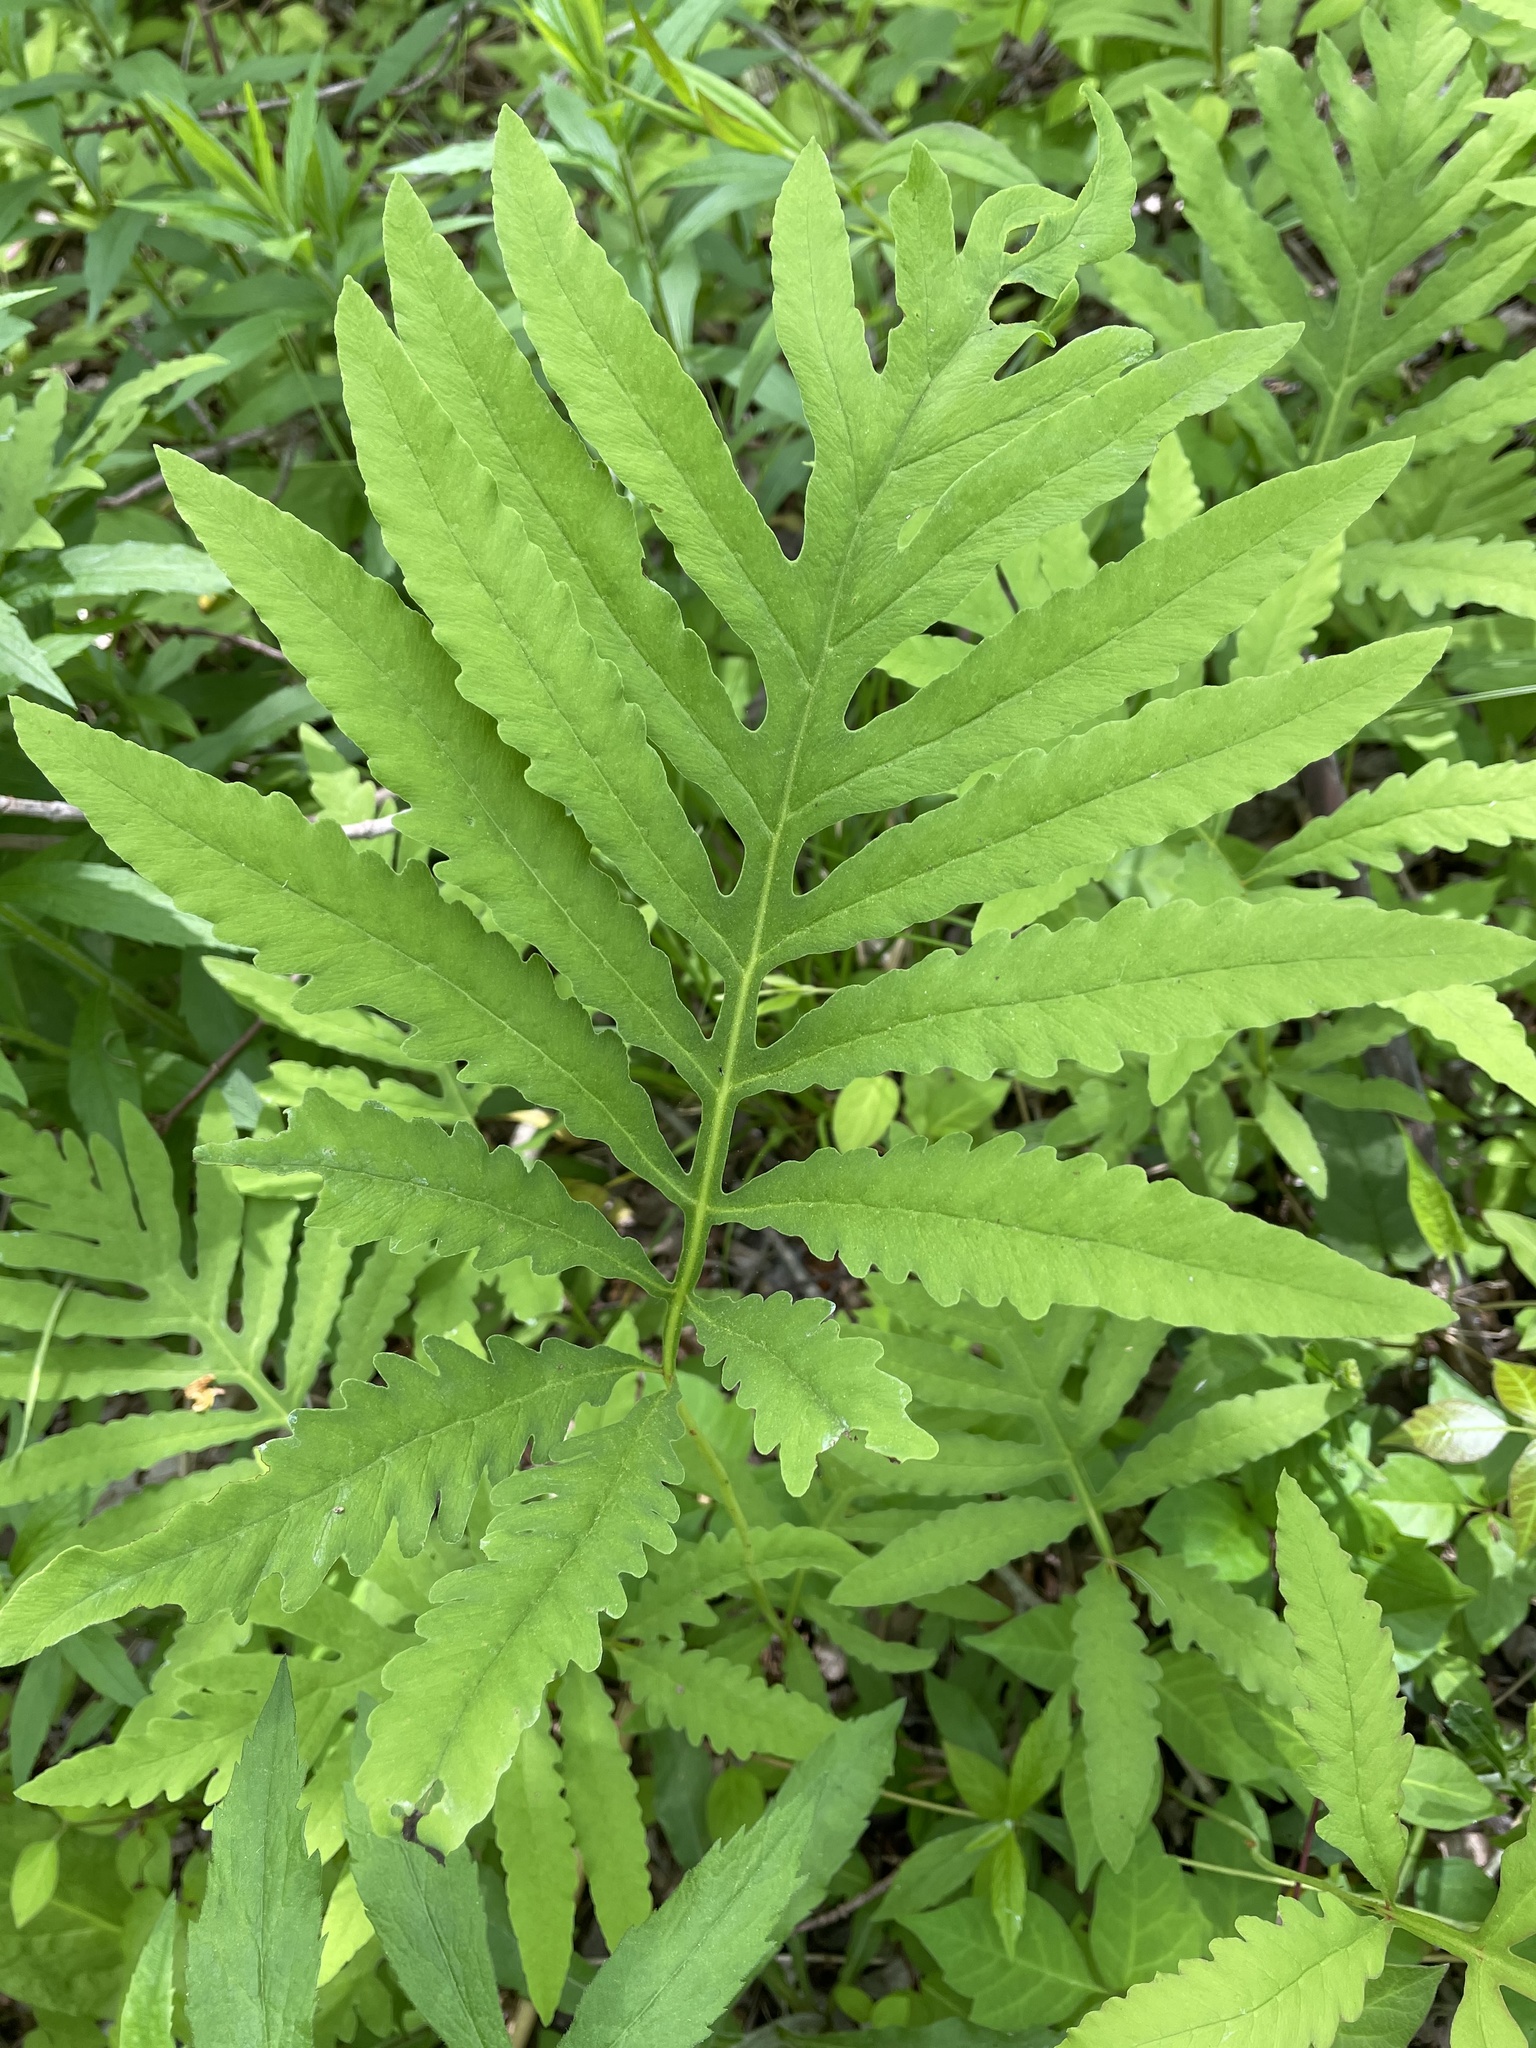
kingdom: Plantae
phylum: Tracheophyta
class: Polypodiopsida
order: Polypodiales
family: Onocleaceae
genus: Onoclea
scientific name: Onoclea sensibilis
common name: Sensitive fern
